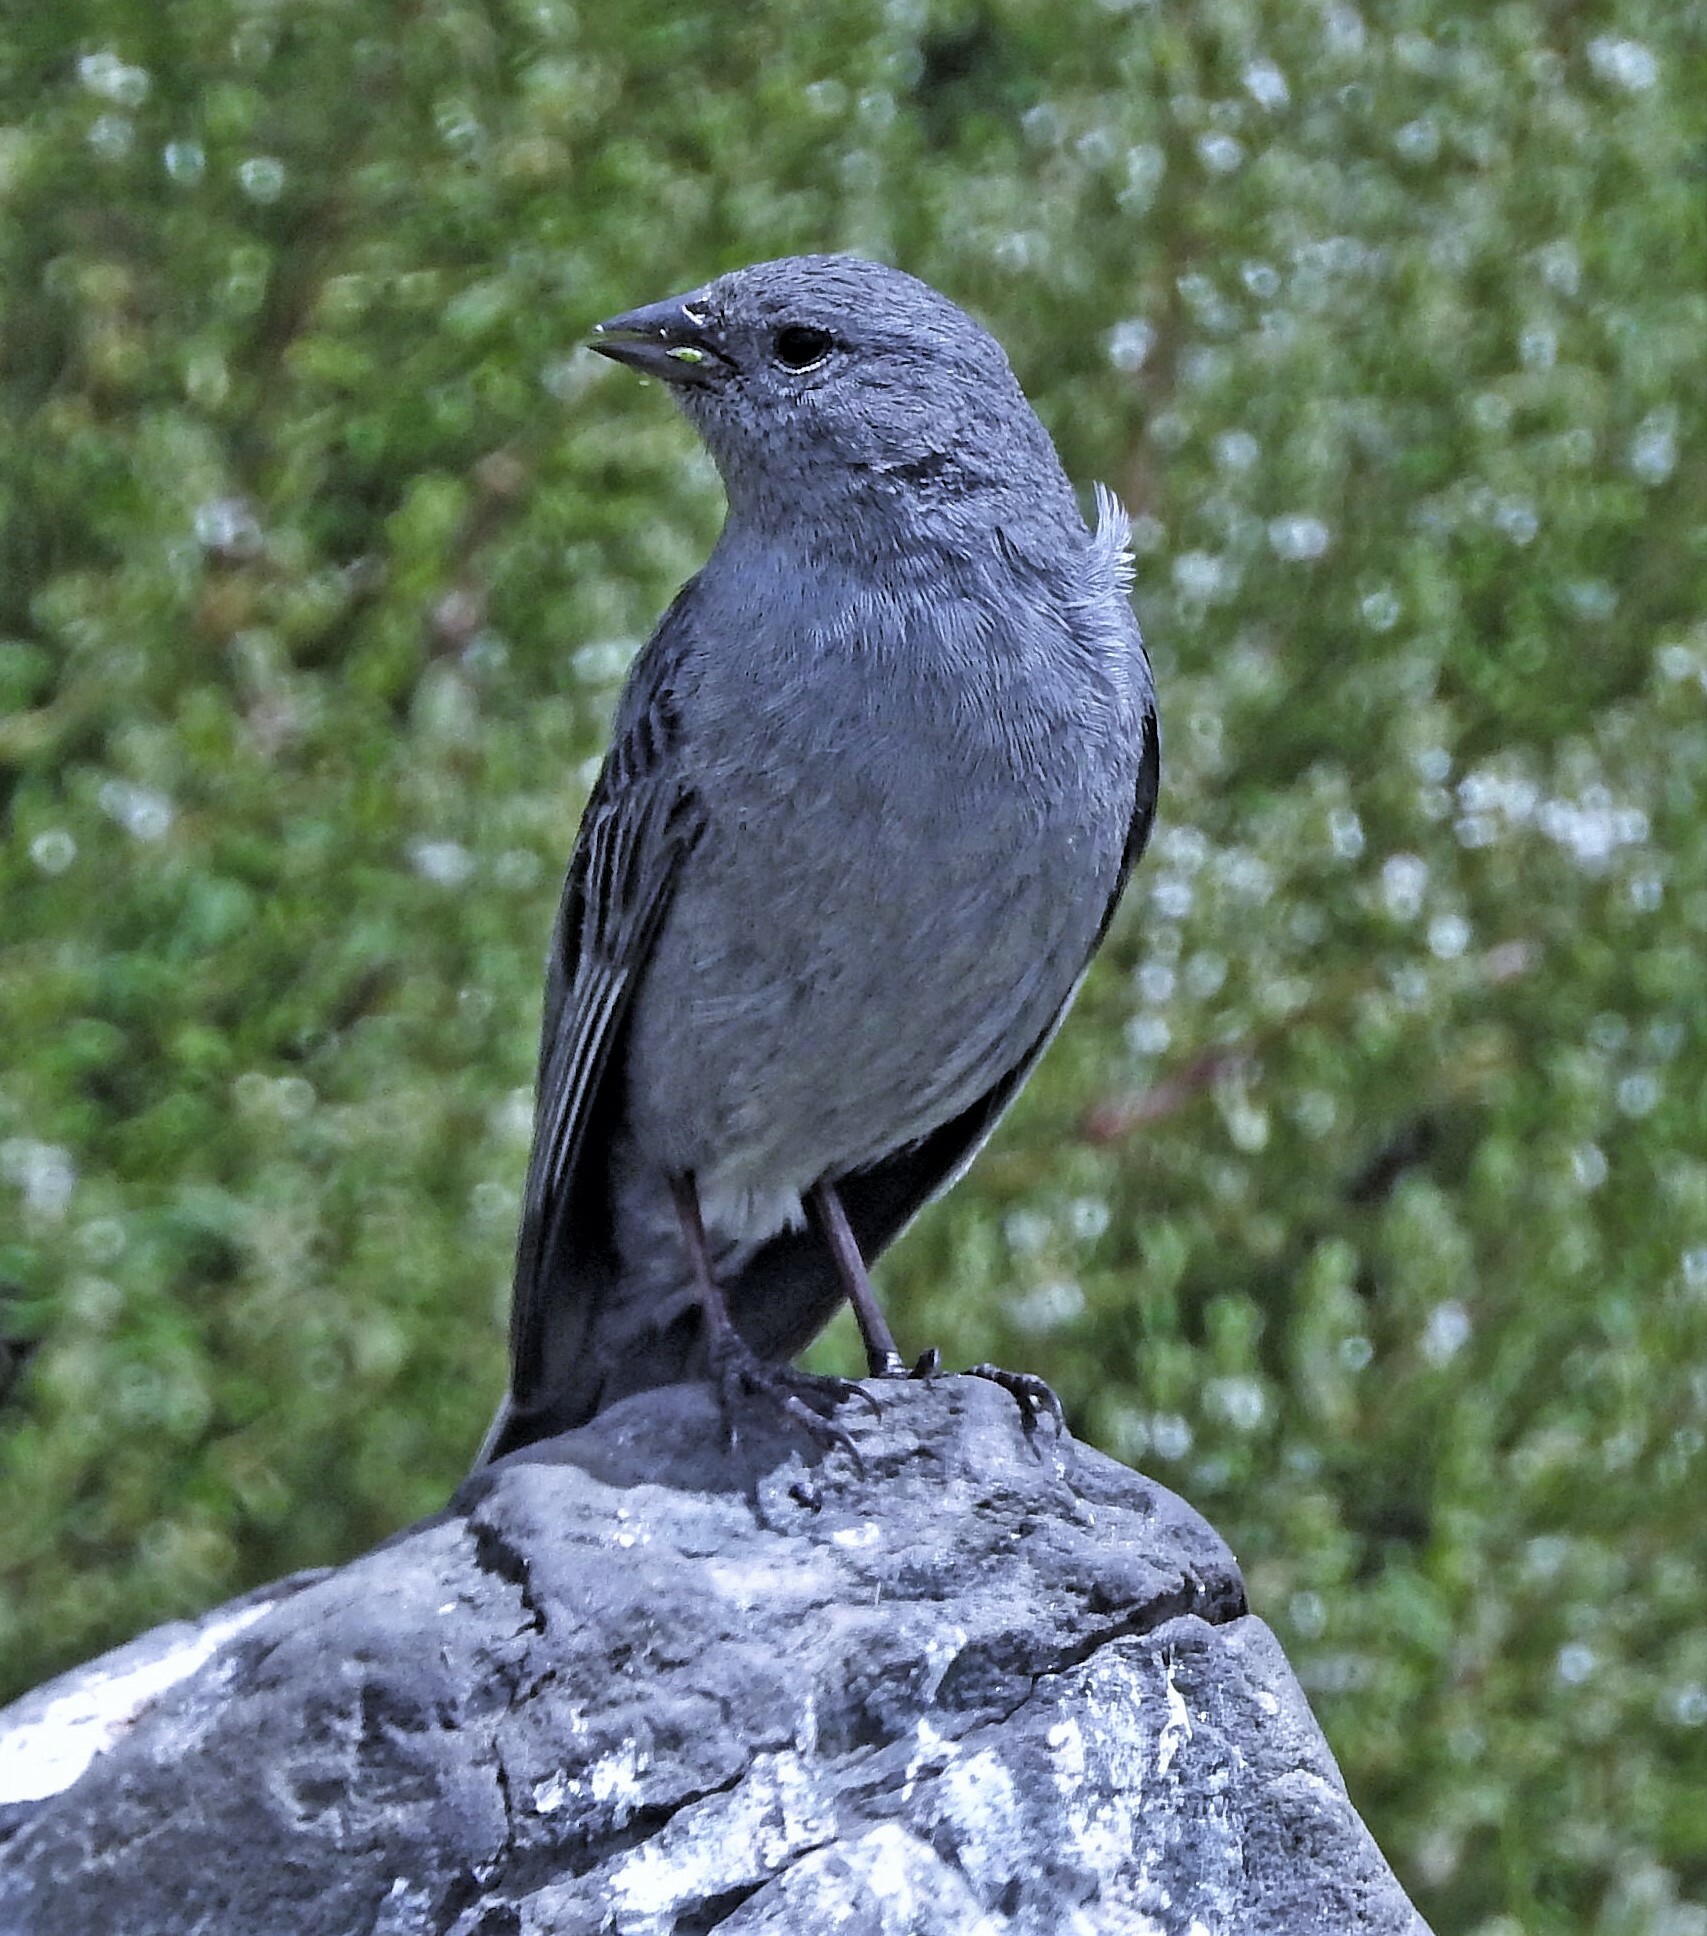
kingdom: Animalia
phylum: Chordata
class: Aves
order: Passeriformes
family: Thraupidae
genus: Geospizopsis
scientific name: Geospizopsis unicolor
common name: Plumbeous sierra-finch
